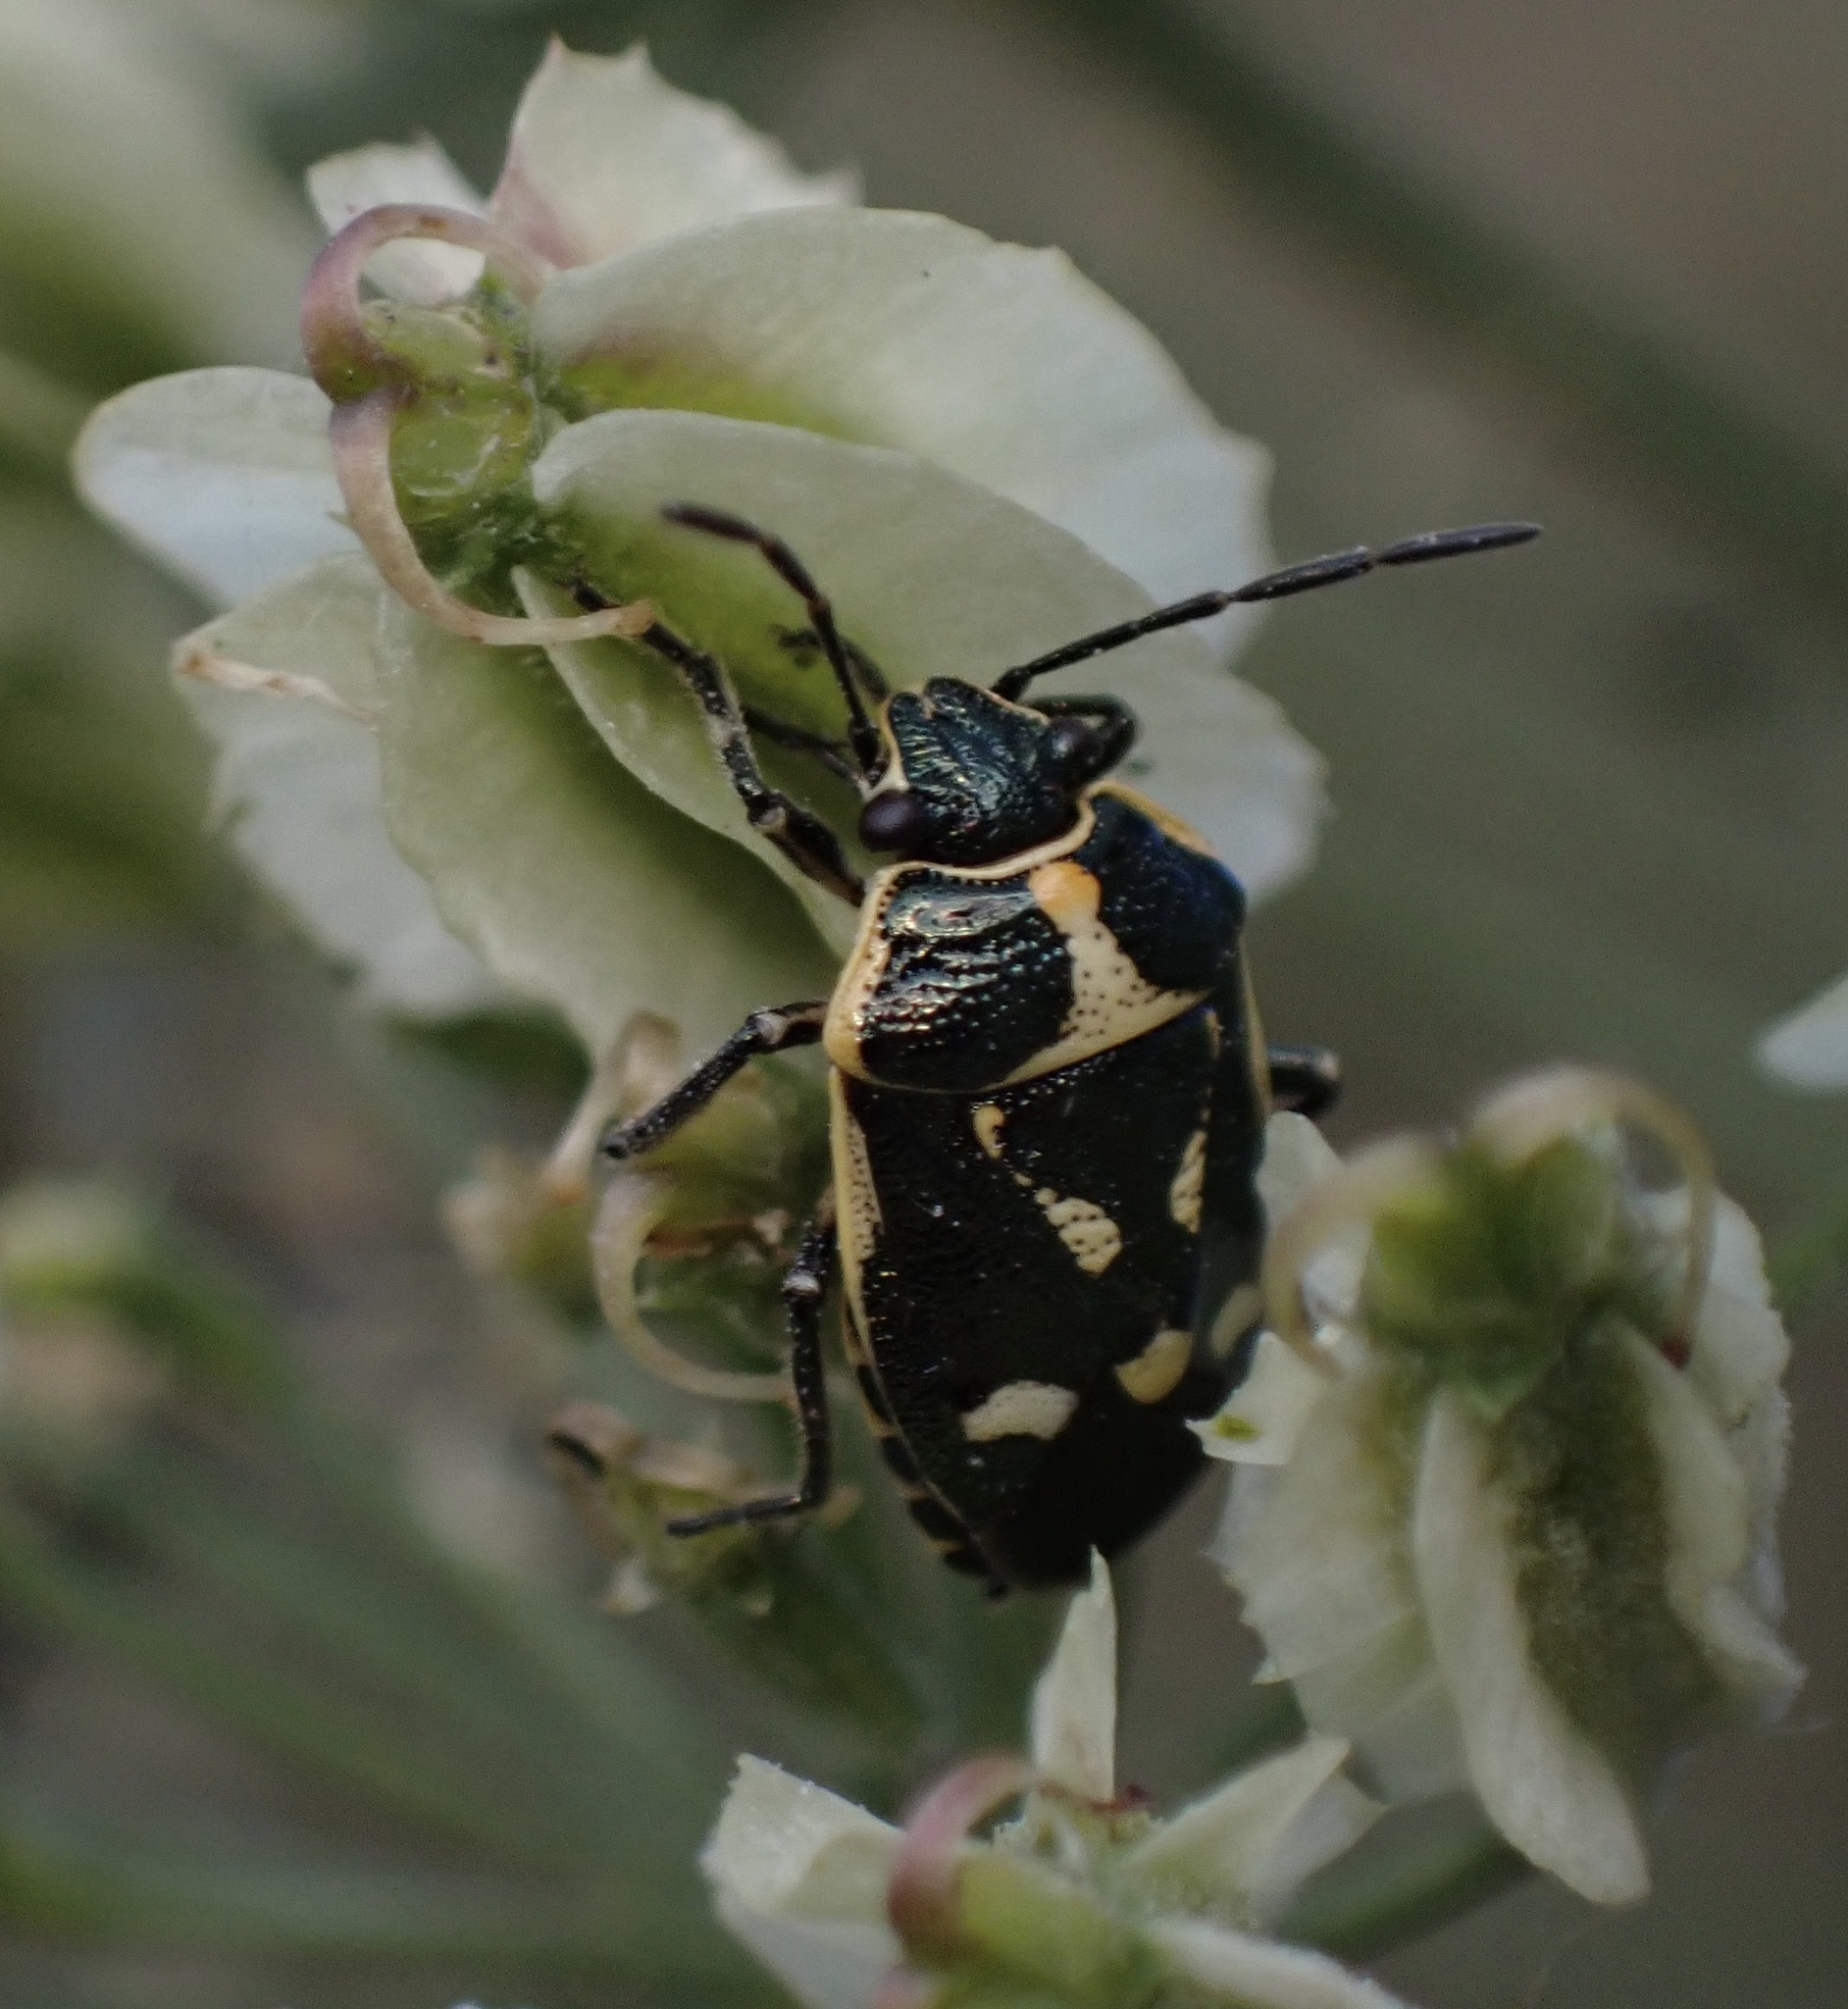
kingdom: Animalia
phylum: Arthropoda
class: Insecta
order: Hemiptera
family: Pentatomidae
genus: Eurydema
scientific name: Eurydema oleracea
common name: Cabbage bug
